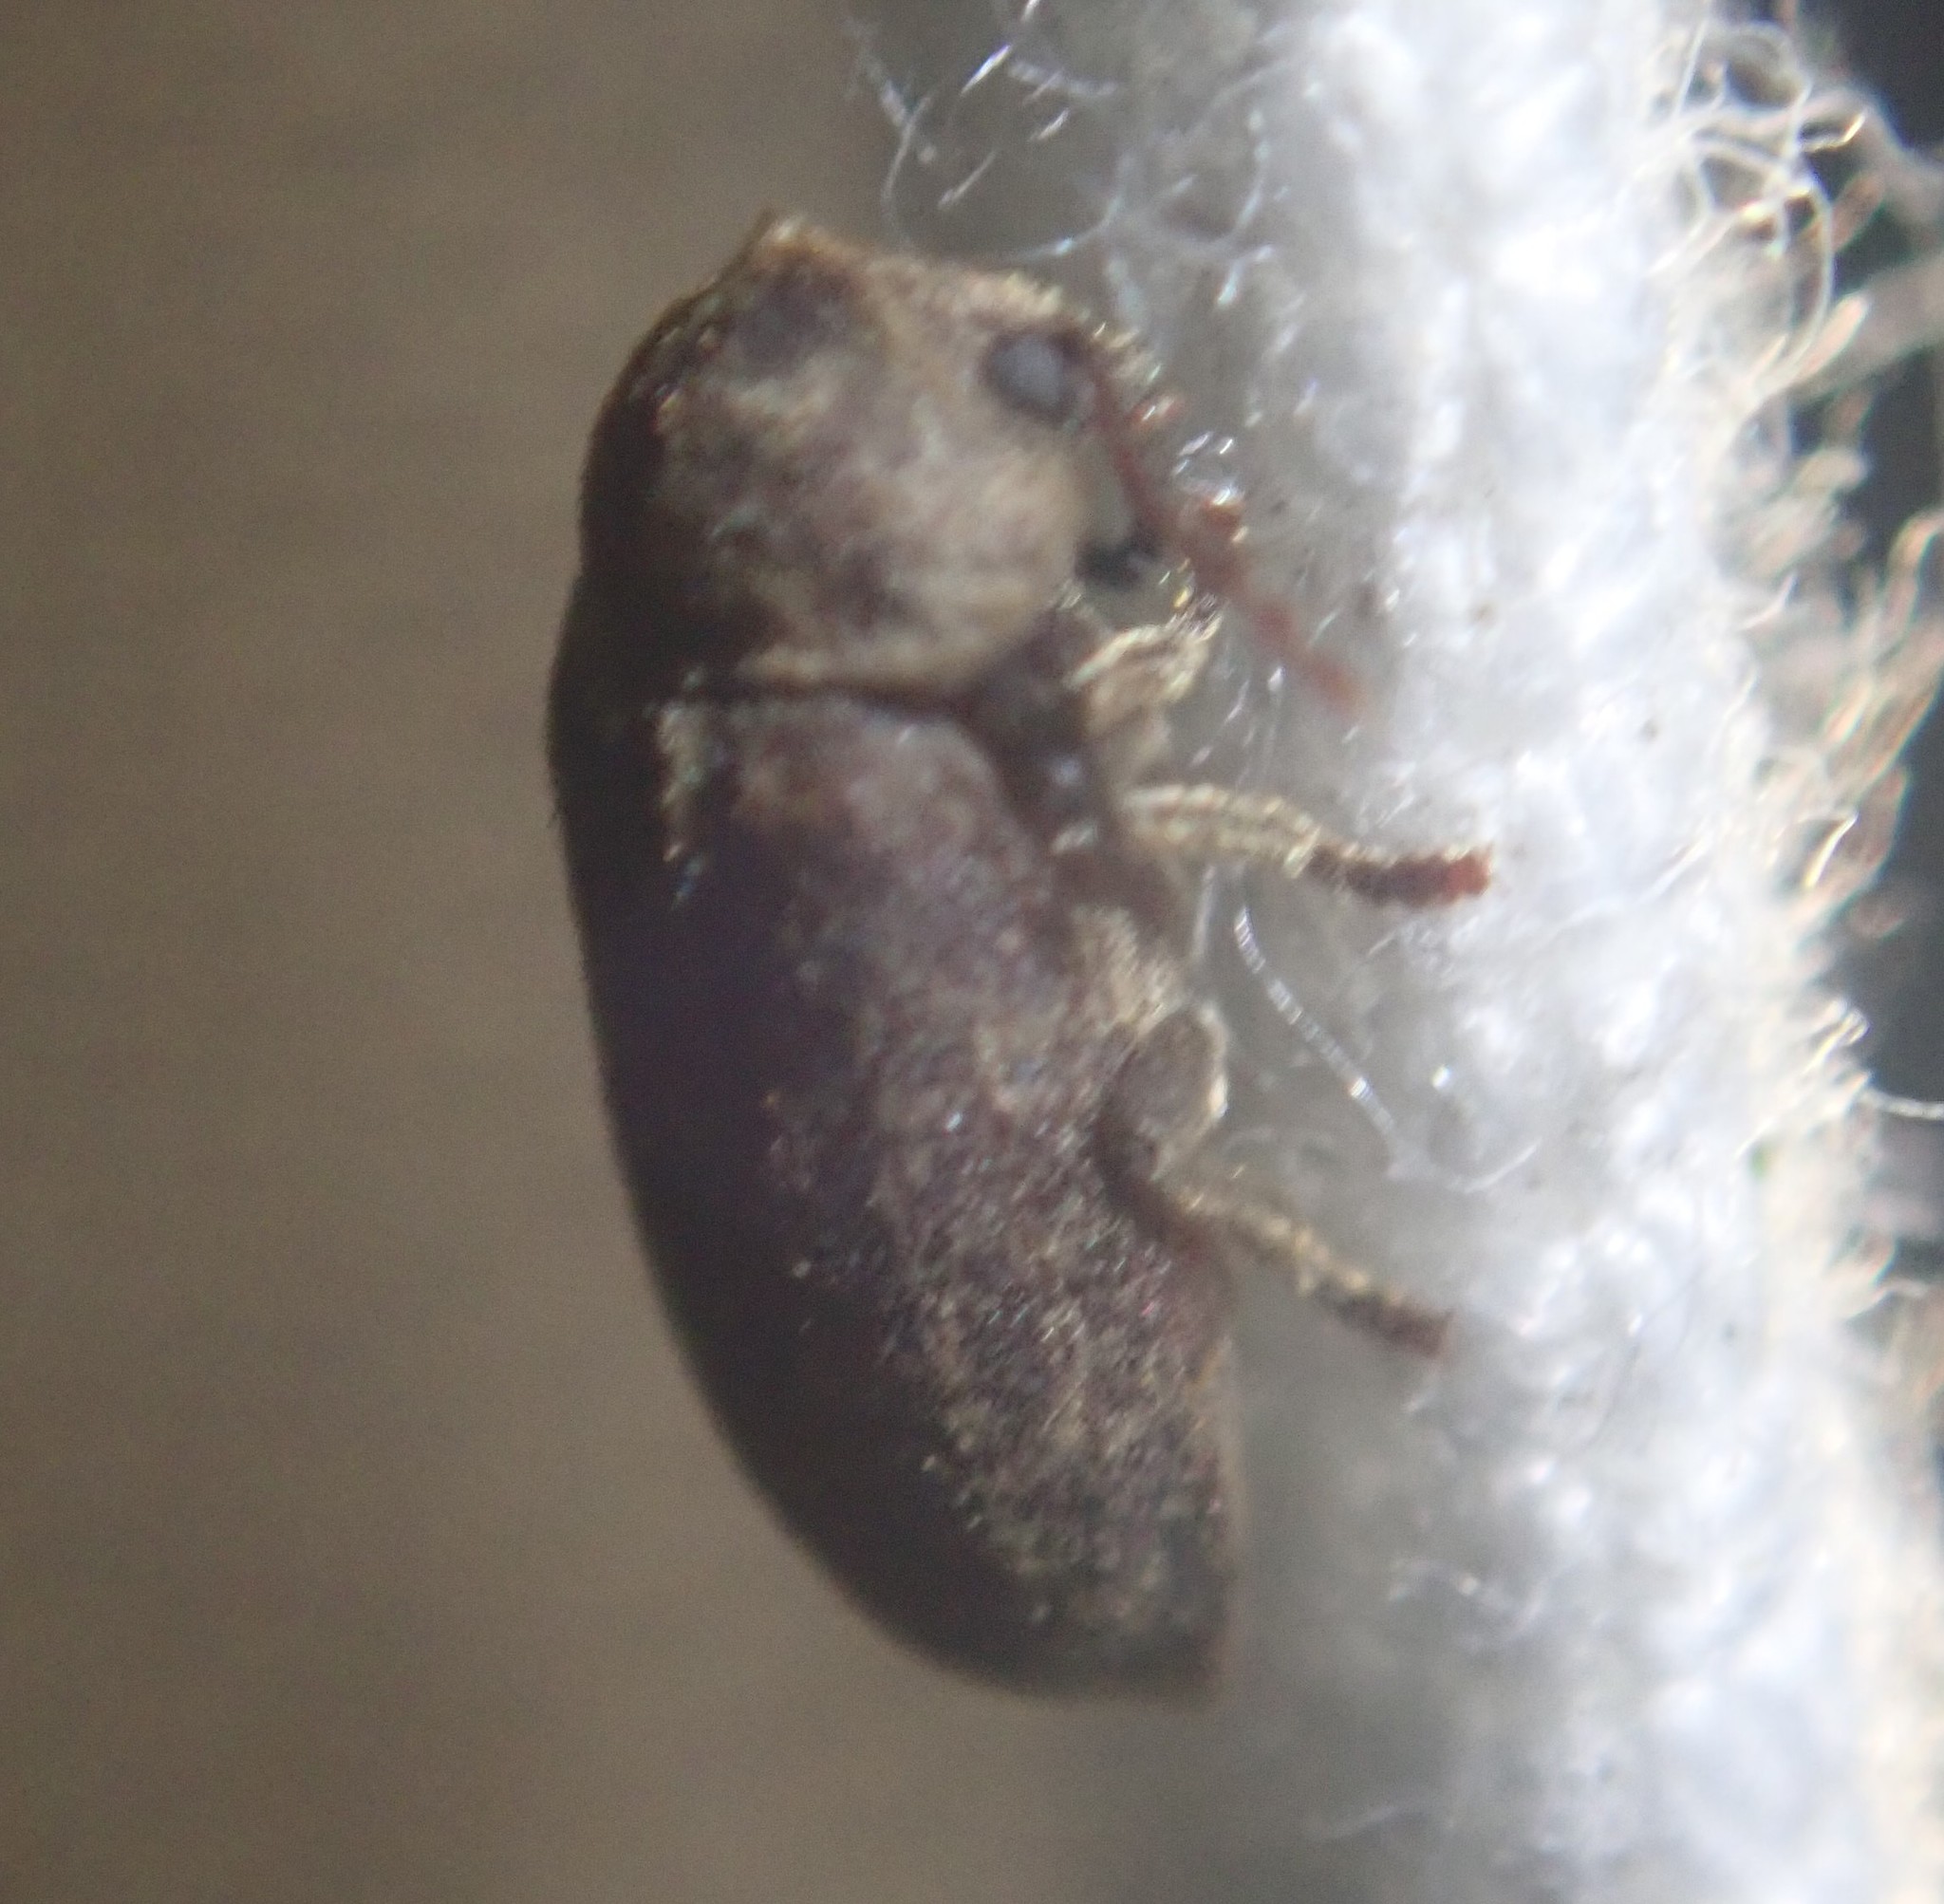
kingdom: Animalia
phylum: Arthropoda
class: Insecta
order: Coleoptera
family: Anobiidae
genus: Xestobium
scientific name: Xestobium rufovillosum
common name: Death-watch beetle
